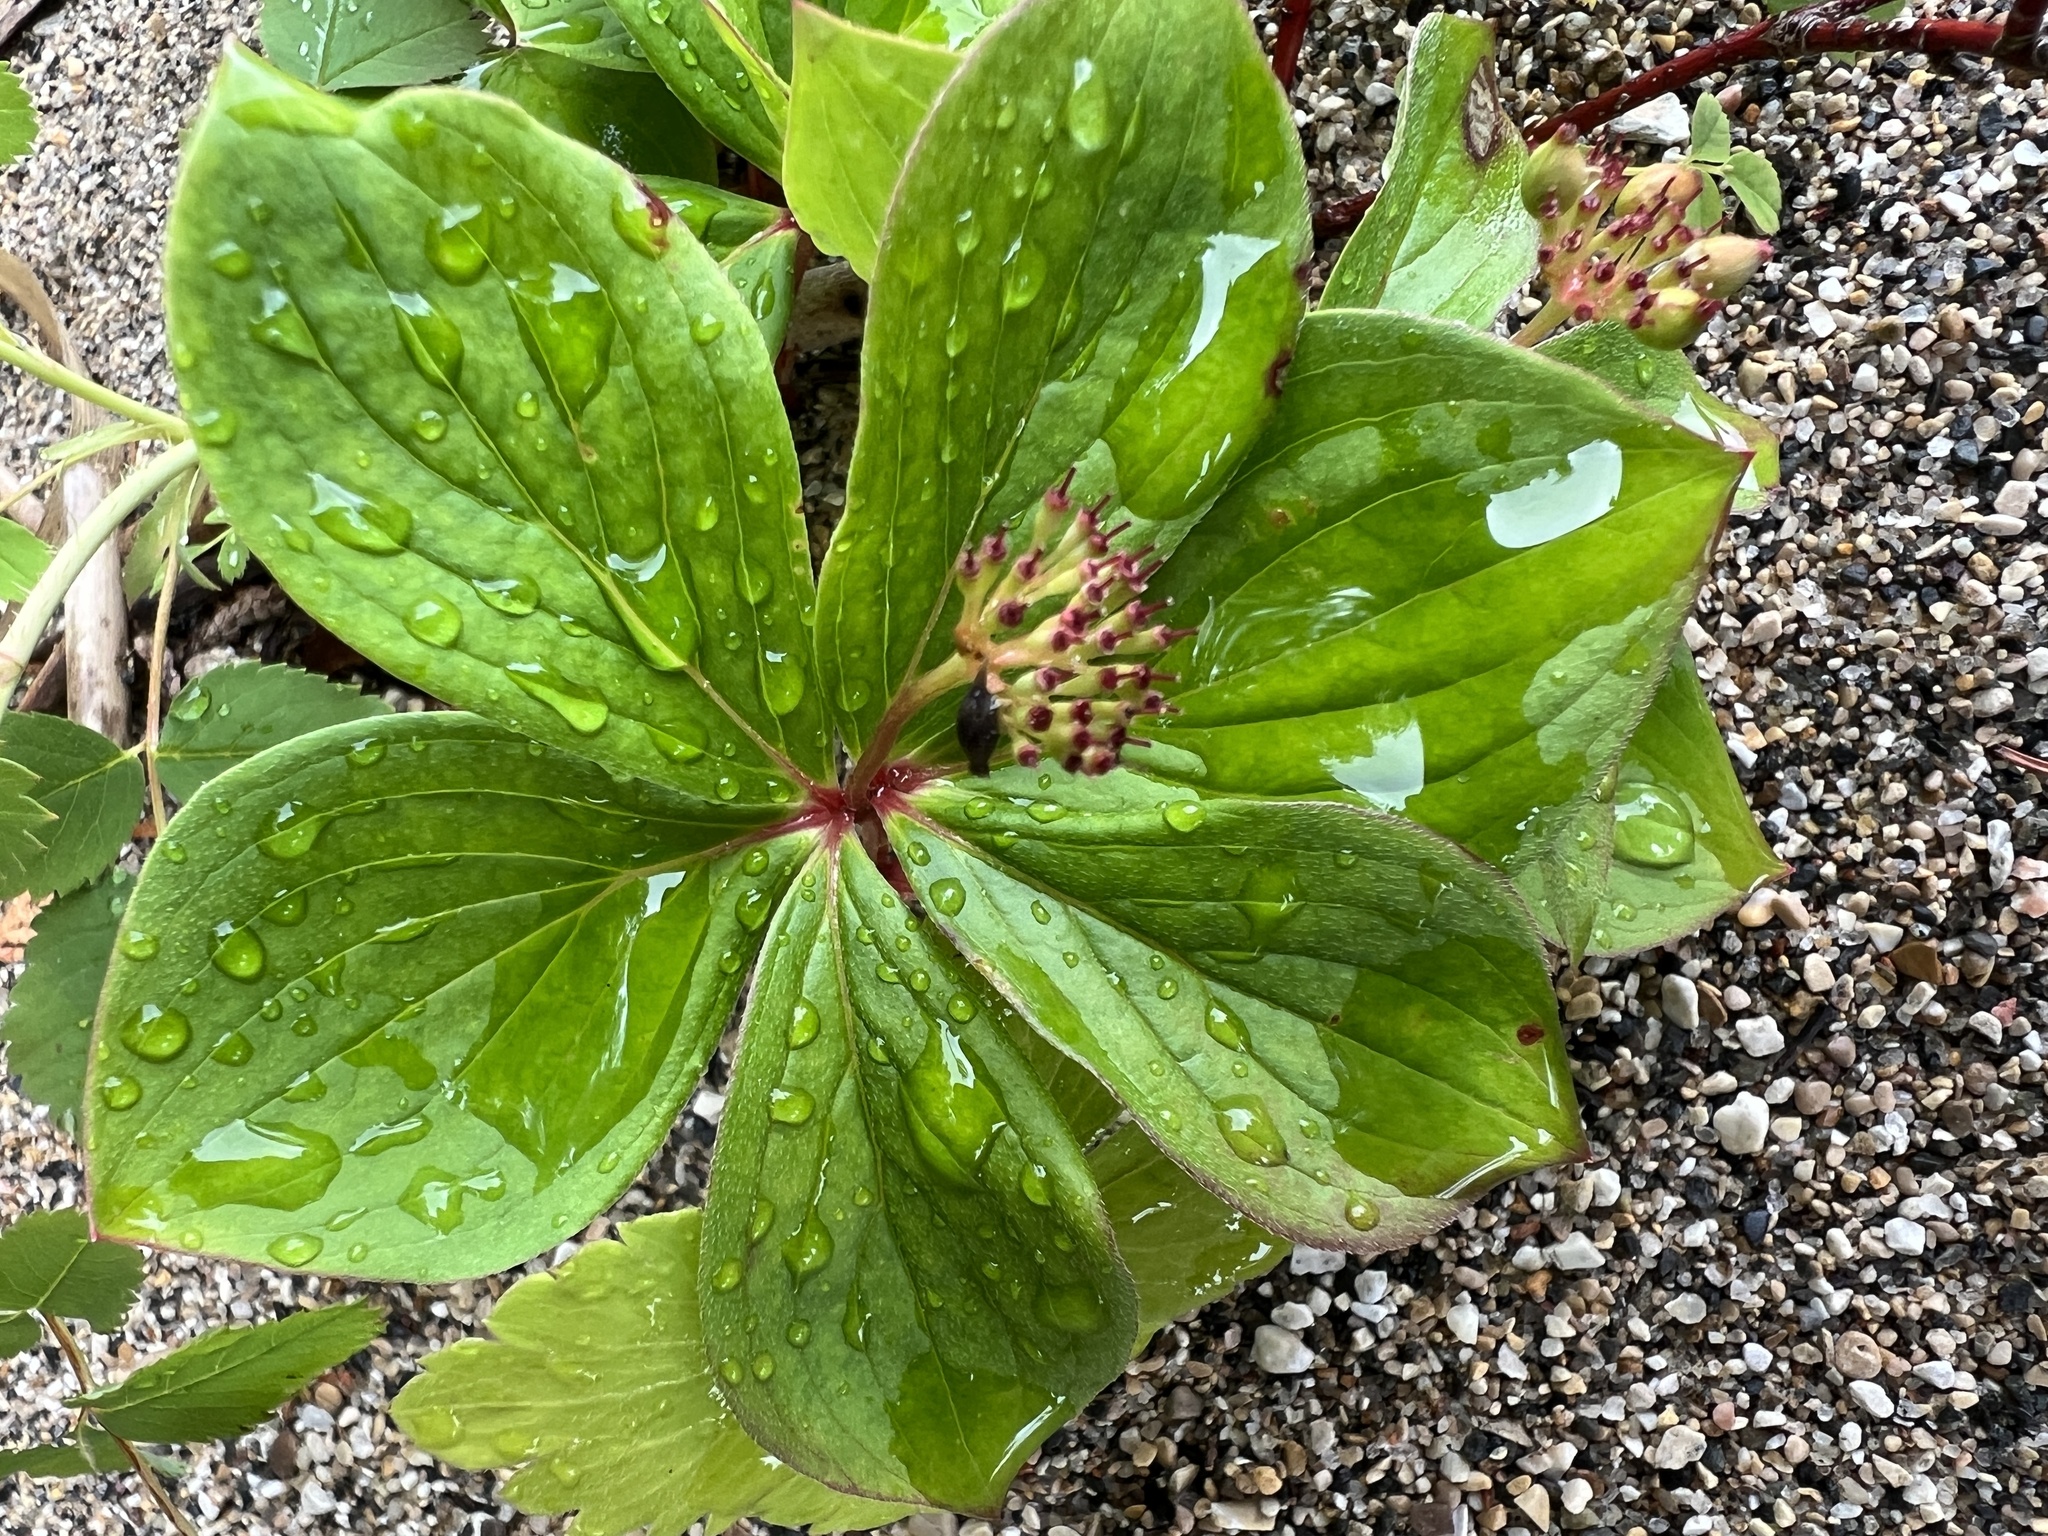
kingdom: Plantae
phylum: Tracheophyta
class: Magnoliopsida
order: Cornales
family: Cornaceae
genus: Cornus
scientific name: Cornus canadensis
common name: Creeping dogwood
